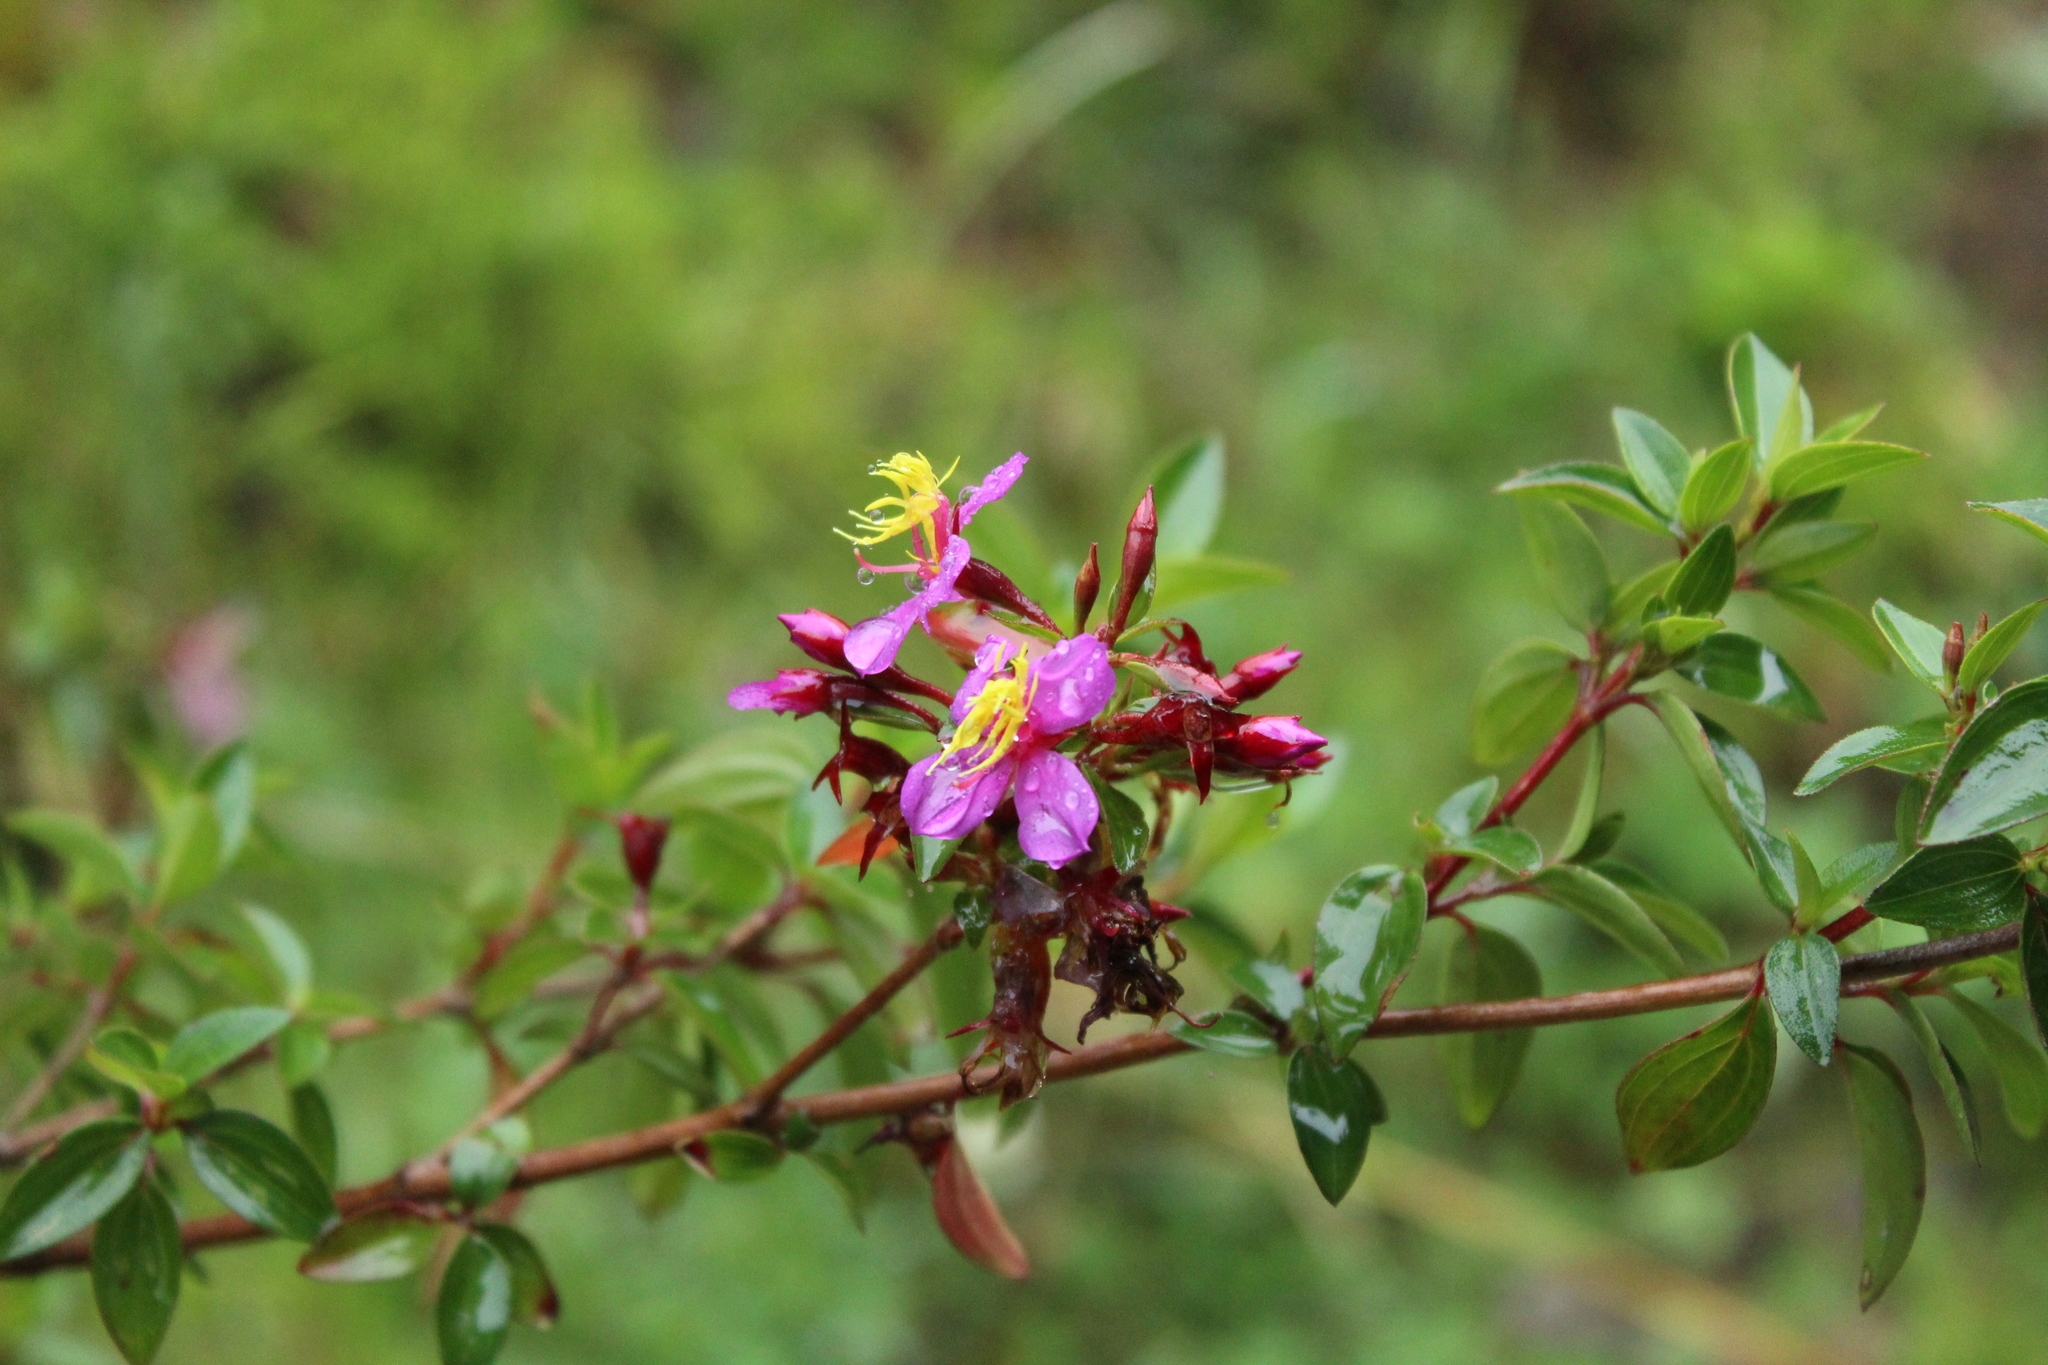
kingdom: Plantae
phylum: Tracheophyta
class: Magnoliopsida
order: Myrtales
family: Melastomataceae
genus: Monochaetum
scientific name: Monochaetum myrtoideum
